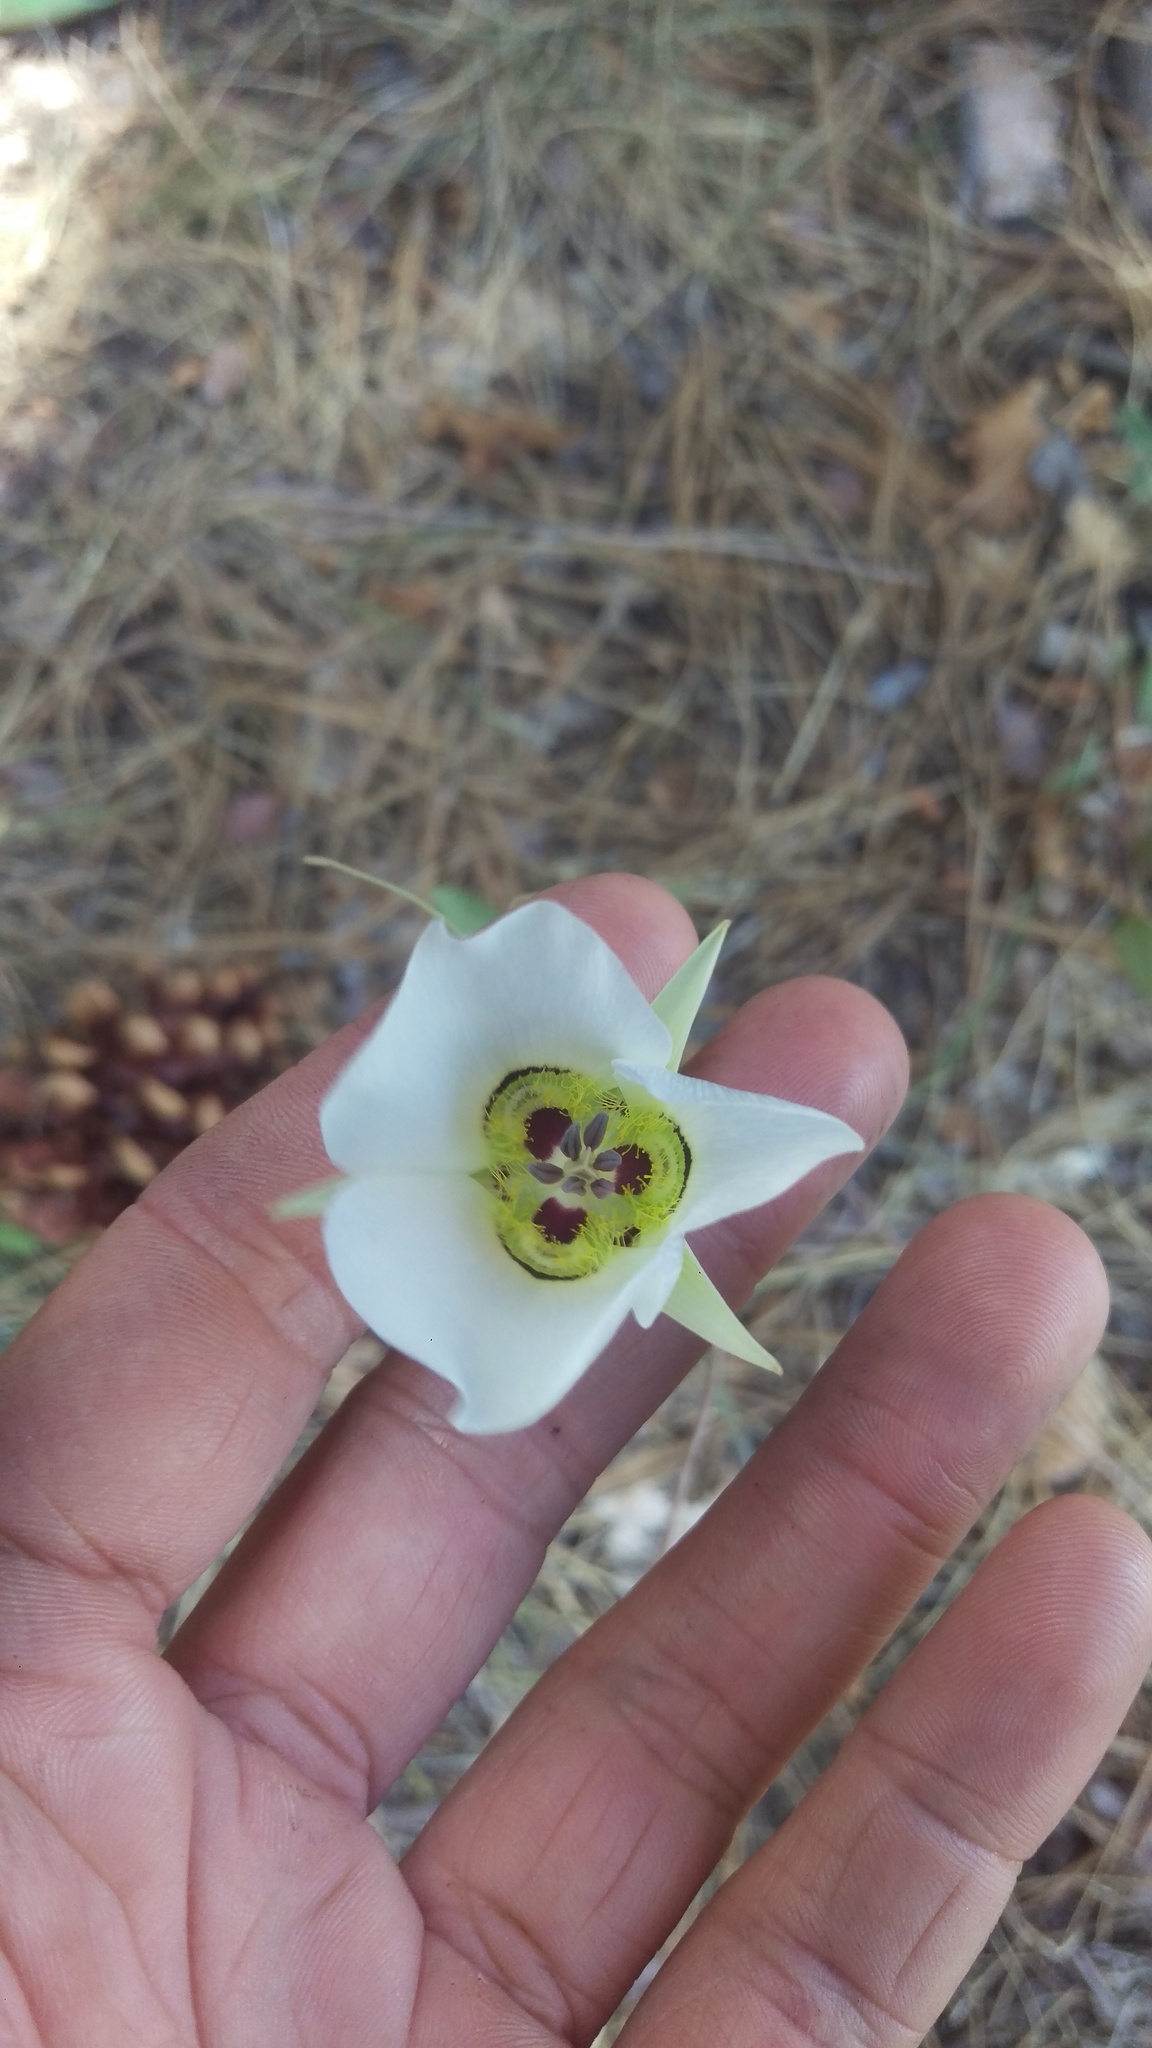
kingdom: Plantae
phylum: Tracheophyta
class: Liliopsida
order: Liliales
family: Liliaceae
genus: Calochortus
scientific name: Calochortus ambiguus
